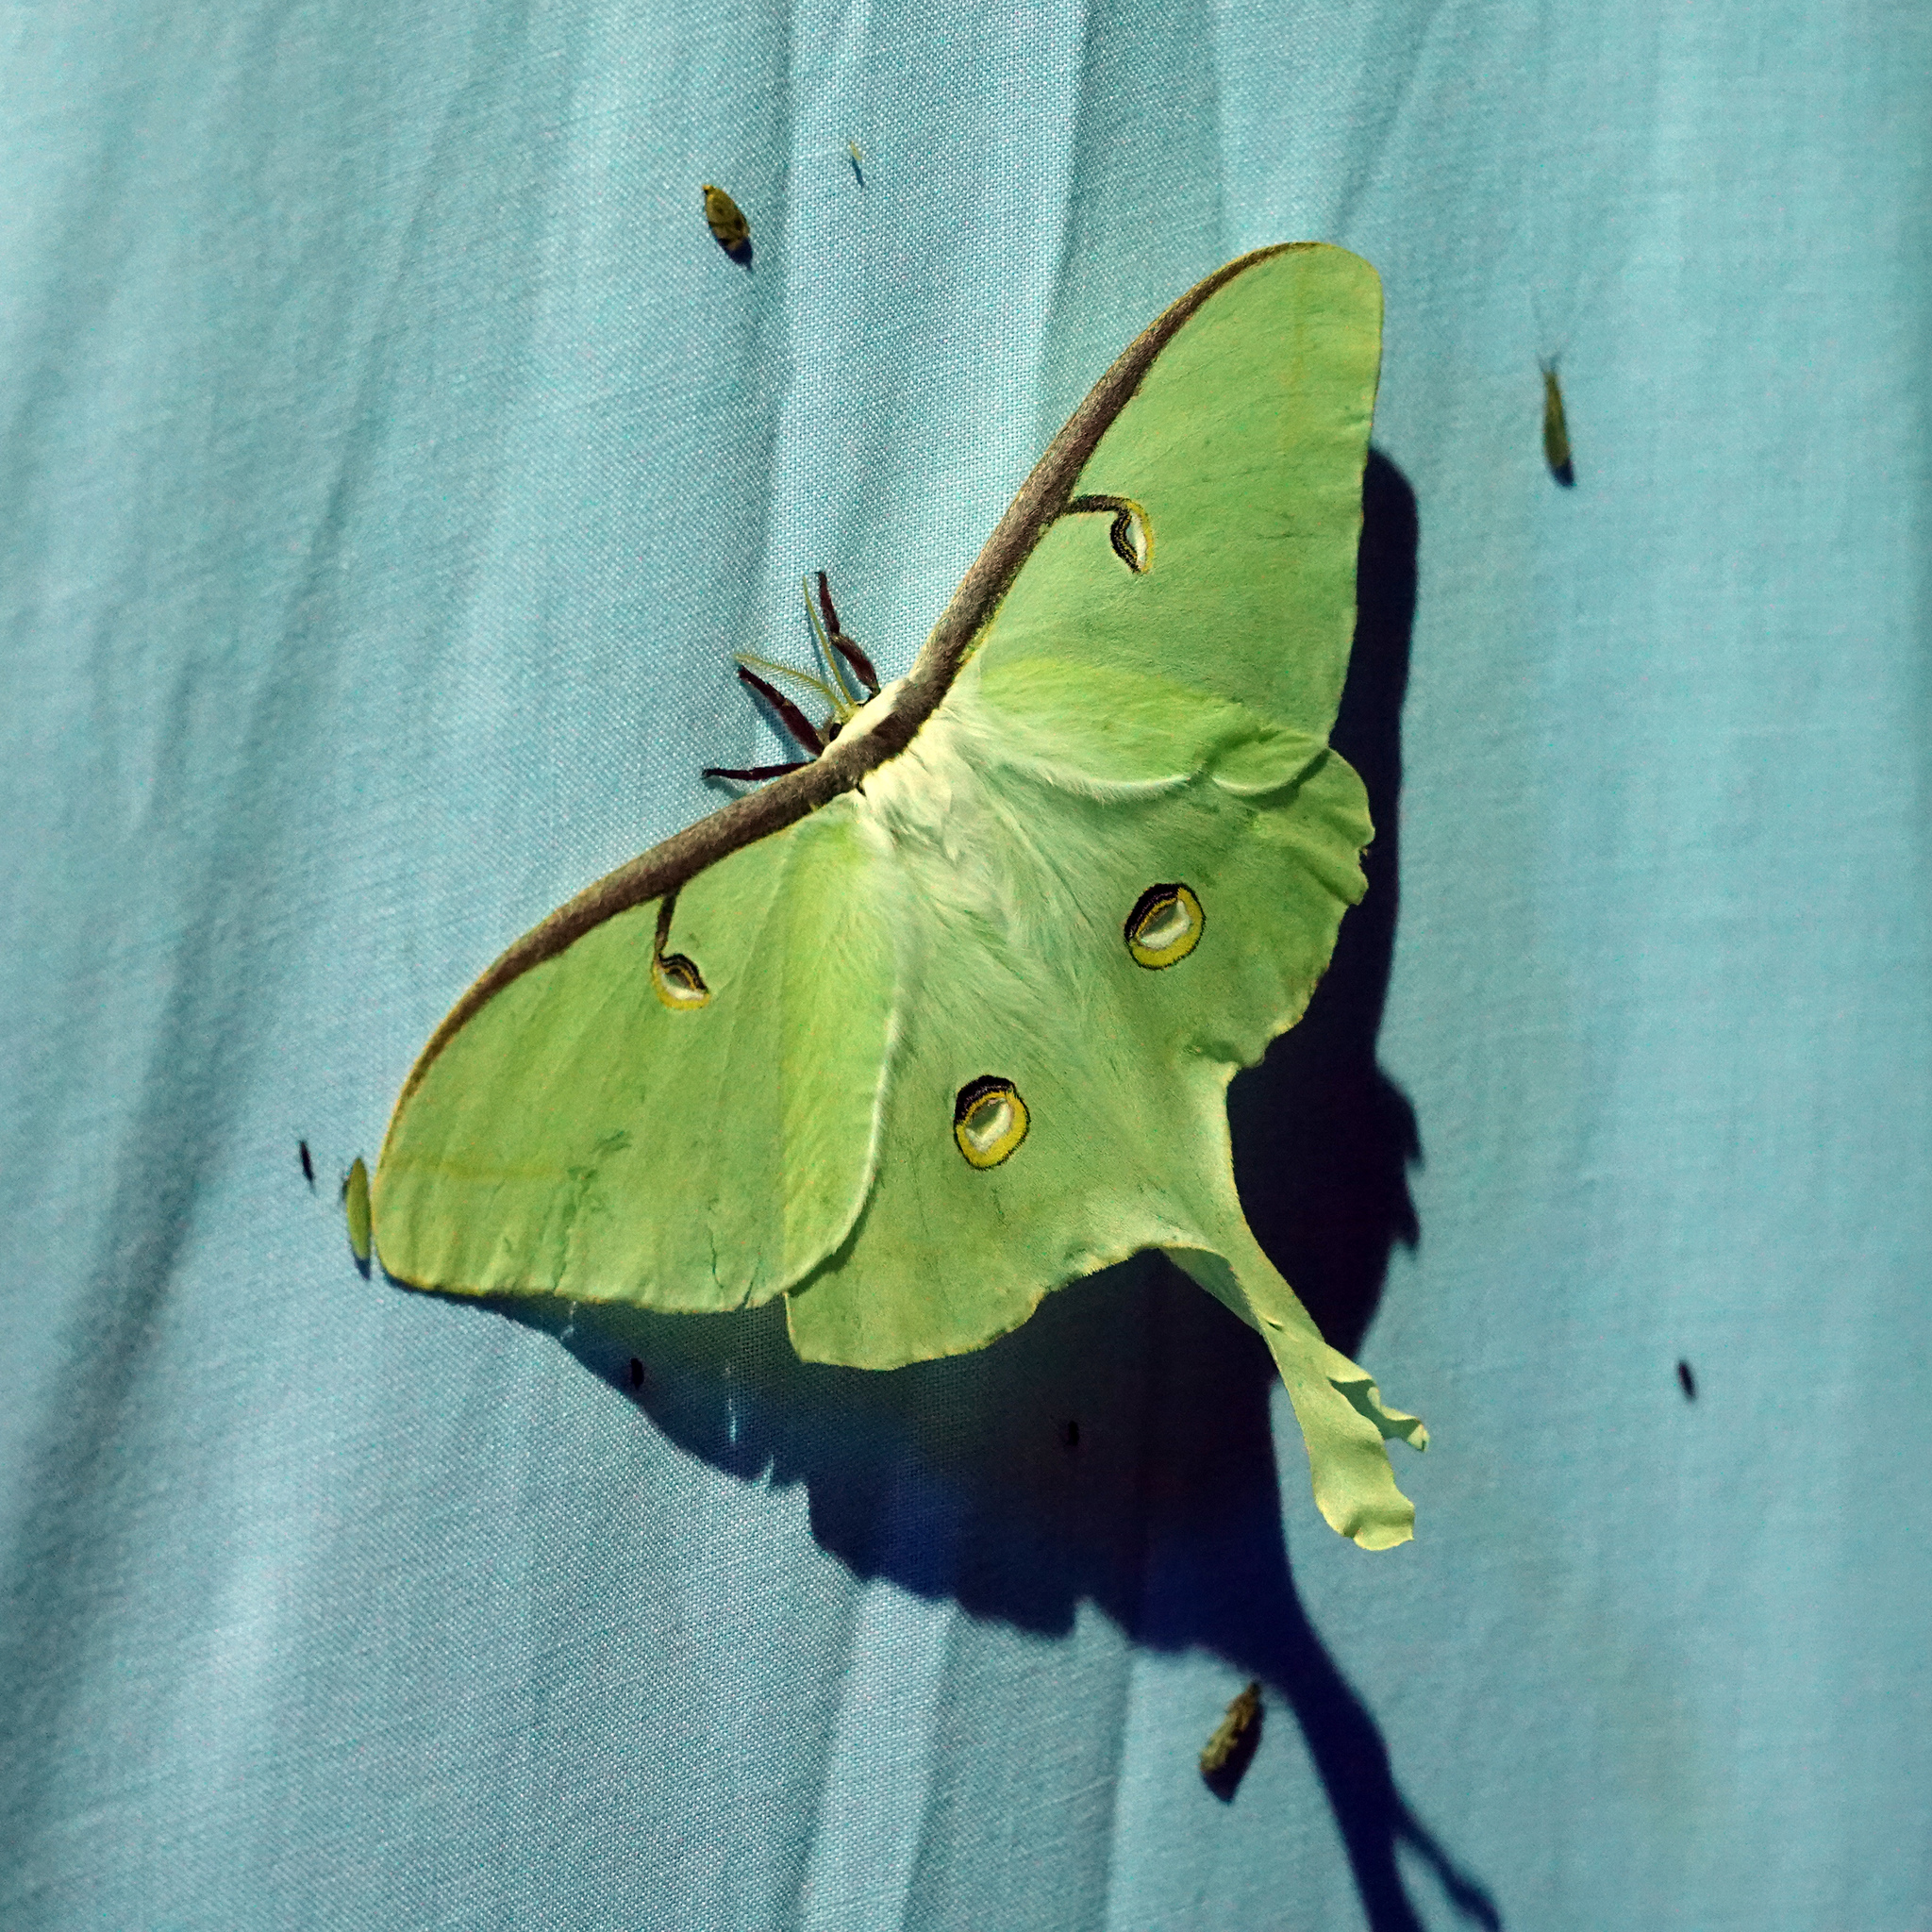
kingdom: Animalia
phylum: Arthropoda
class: Insecta
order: Lepidoptera
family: Saturniidae
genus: Actias
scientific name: Actias luna
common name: Luna moth
